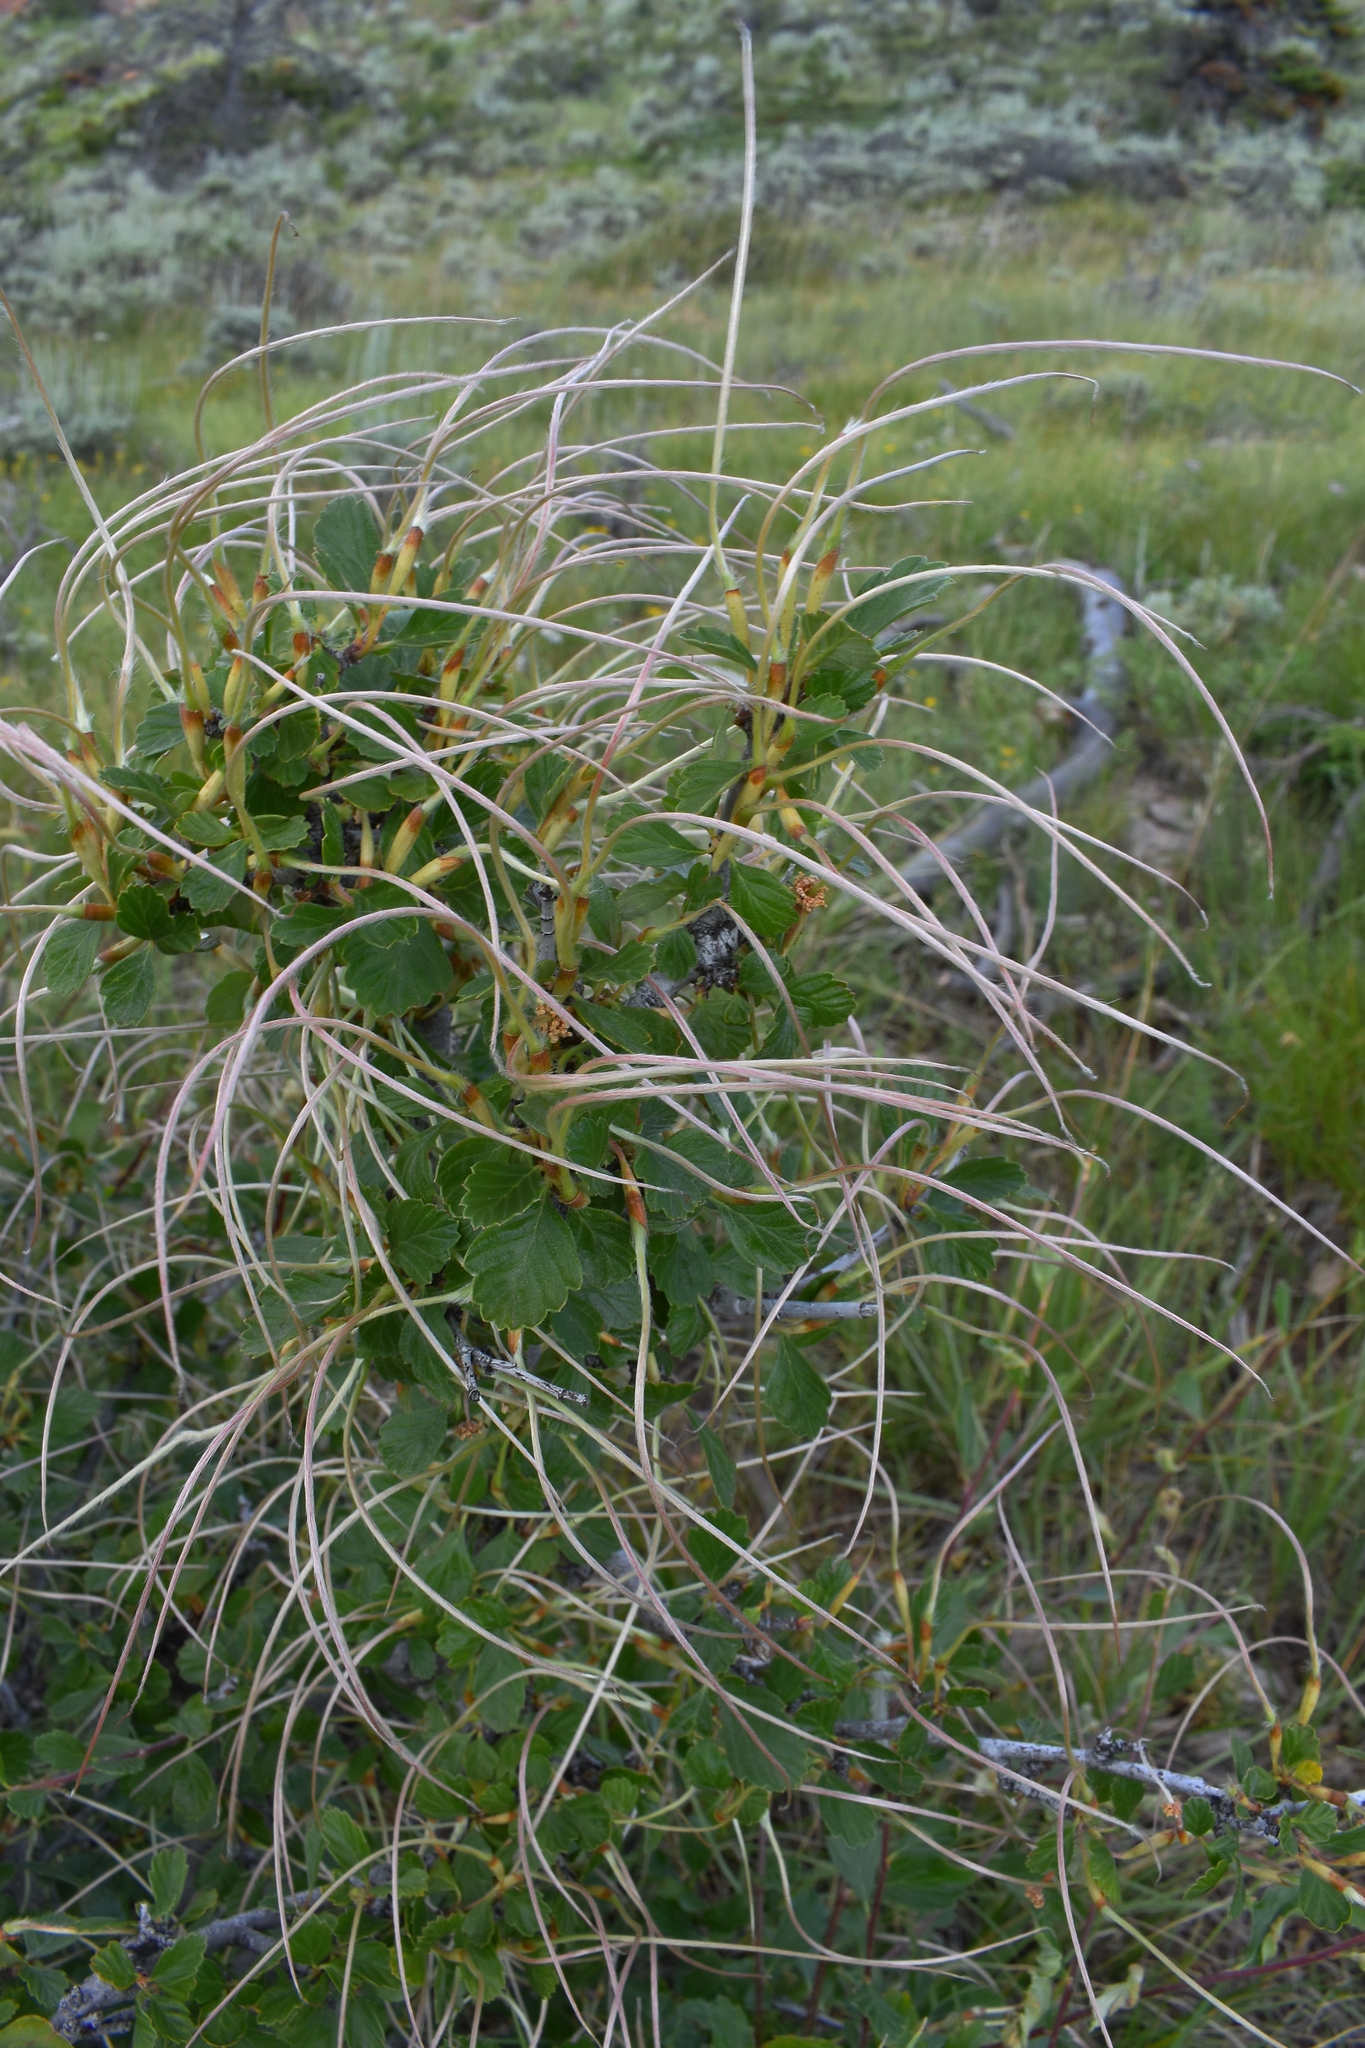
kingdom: Plantae
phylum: Tracheophyta
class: Magnoliopsida
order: Rosales
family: Rosaceae
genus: Cercocarpus
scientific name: Cercocarpus montanus
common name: Alder-leaf cercocarpus
